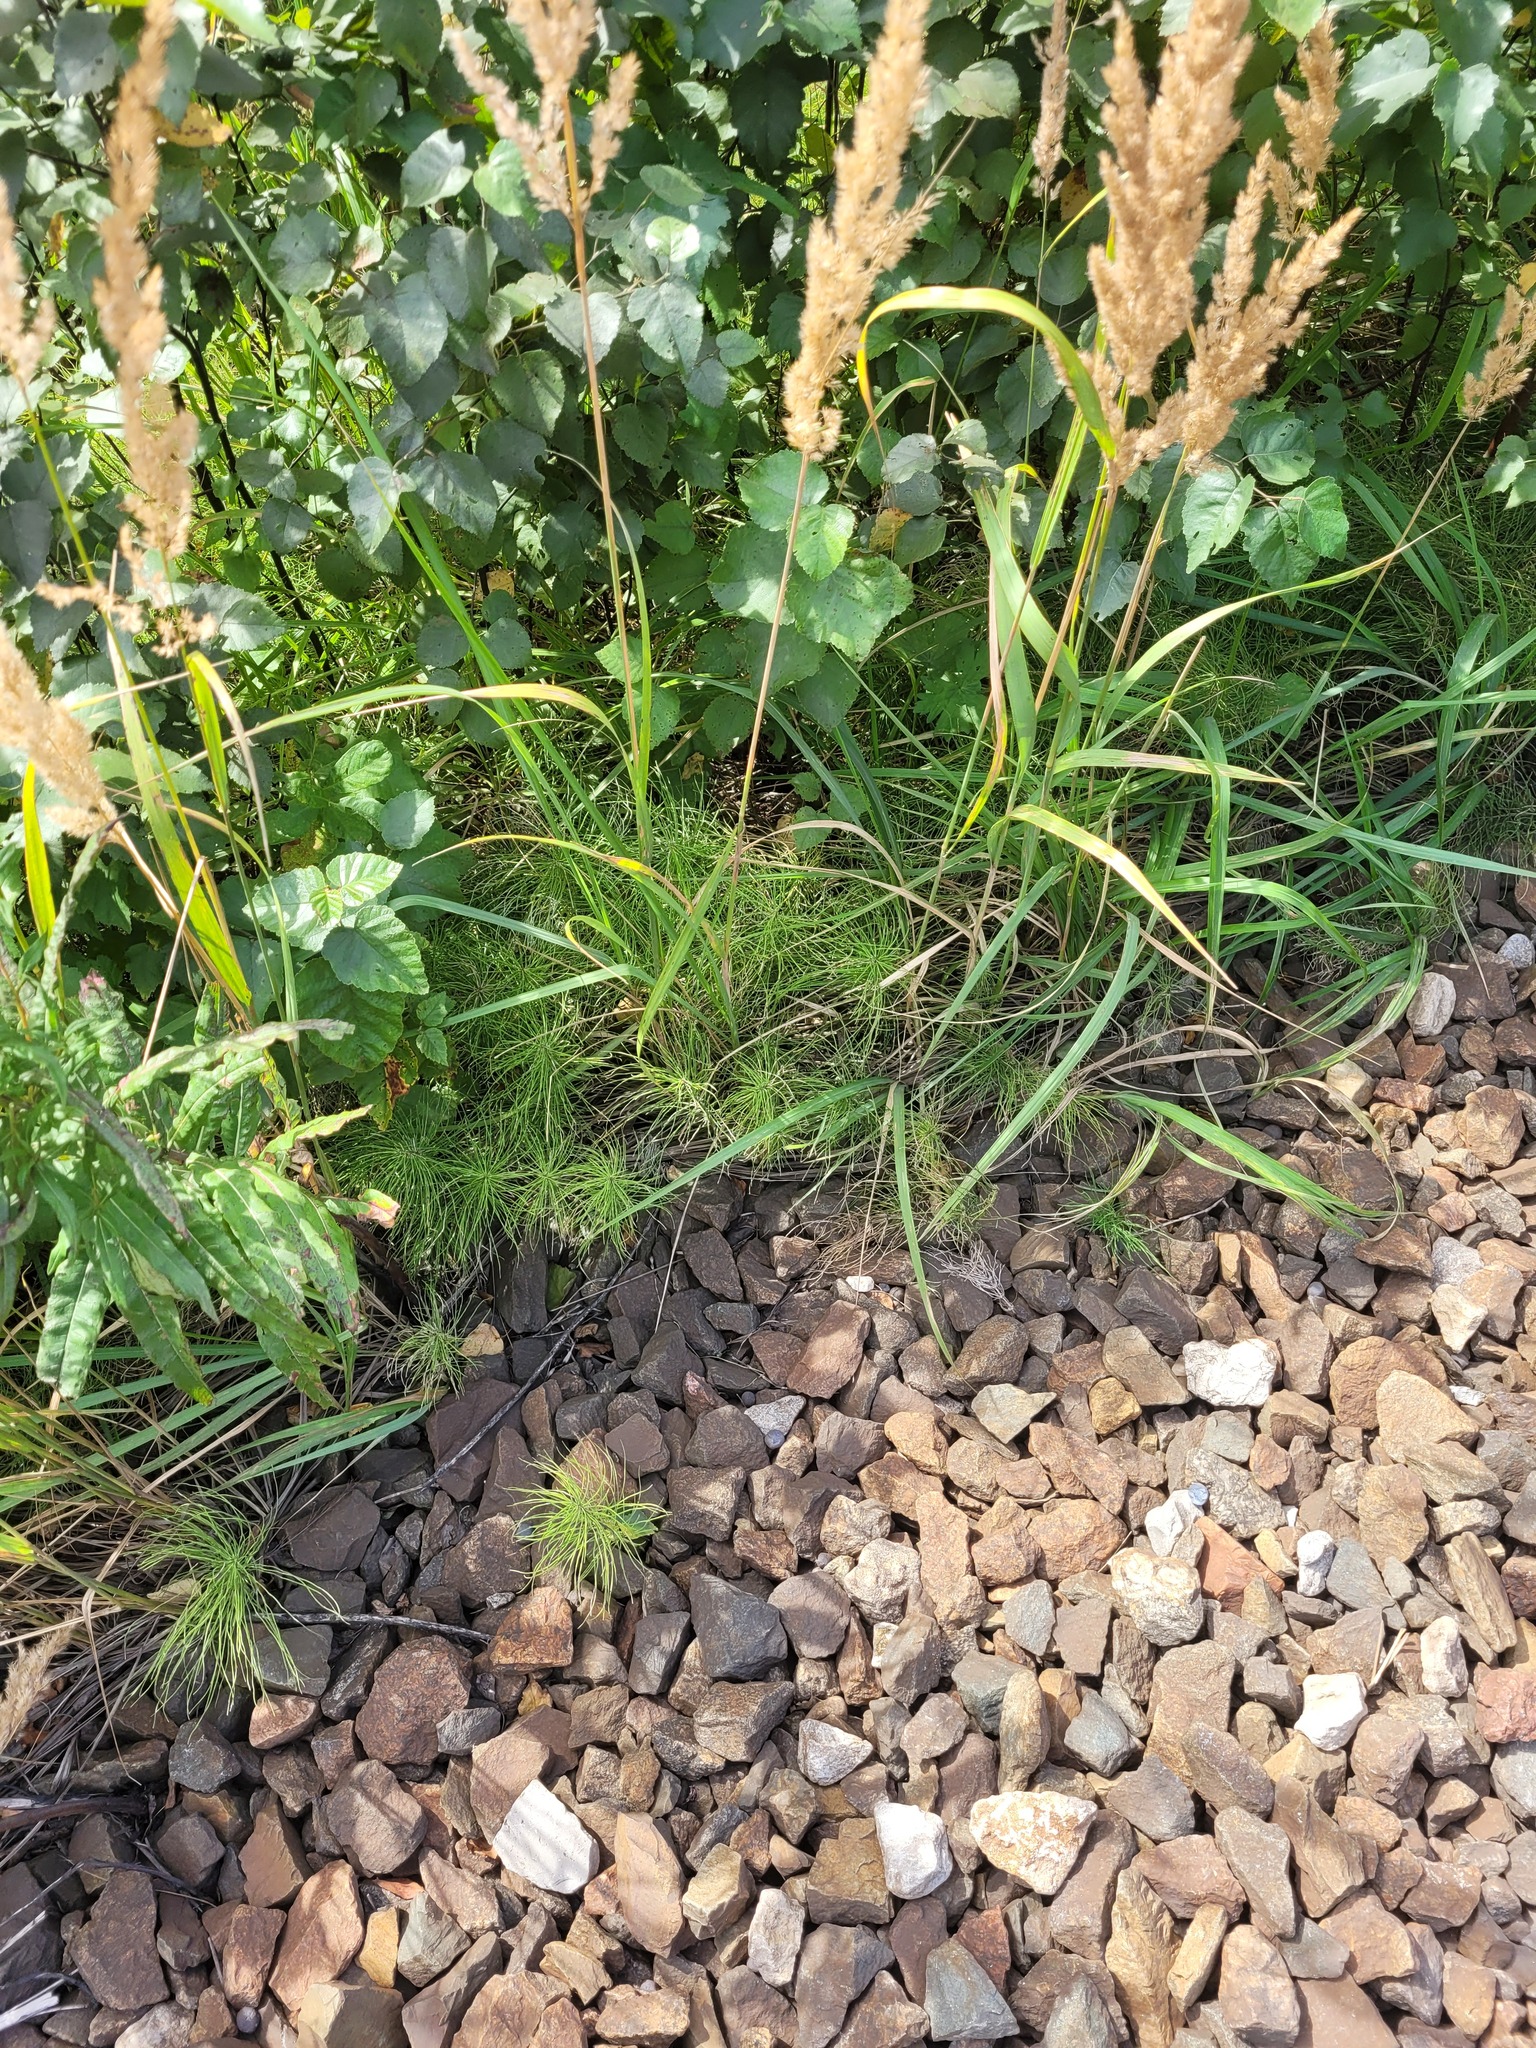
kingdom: Plantae
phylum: Tracheophyta
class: Polypodiopsida
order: Equisetales
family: Equisetaceae
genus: Equisetum
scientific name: Equisetum pratense
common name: Meadow horsetail
